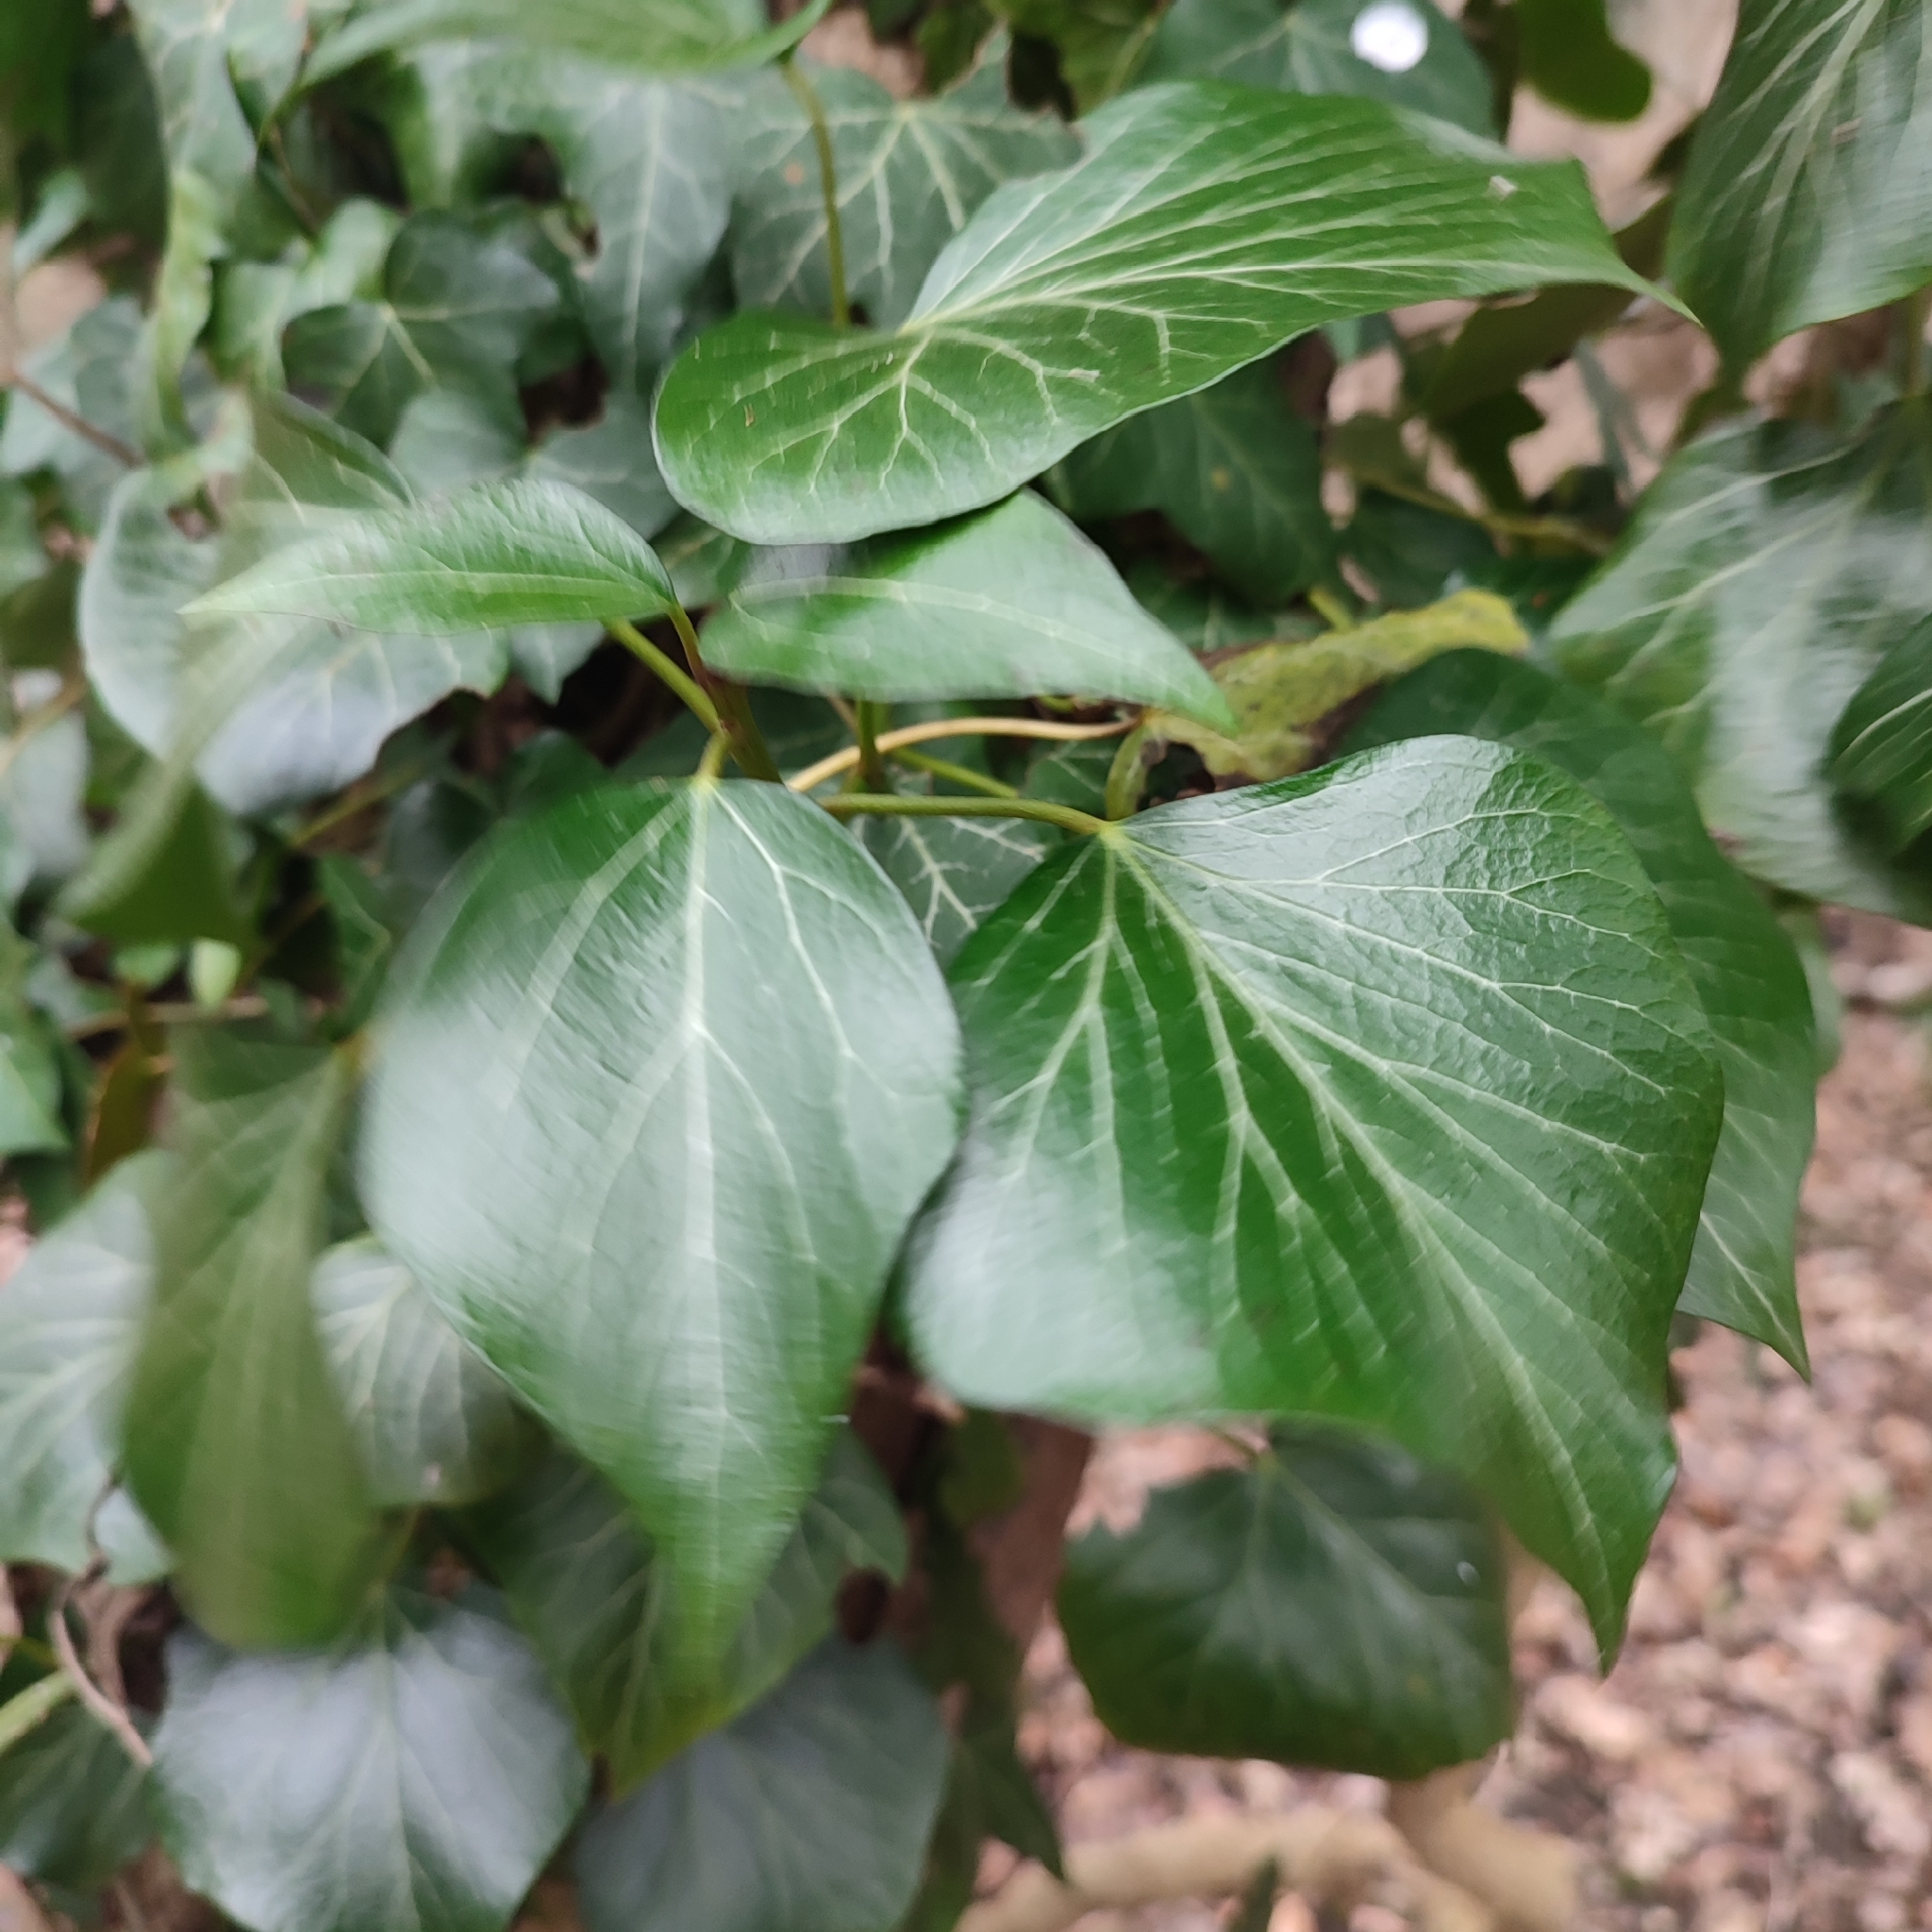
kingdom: Plantae
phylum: Tracheophyta
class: Magnoliopsida
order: Apiales
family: Araliaceae
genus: Hedera
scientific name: Hedera helix
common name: Ivy
